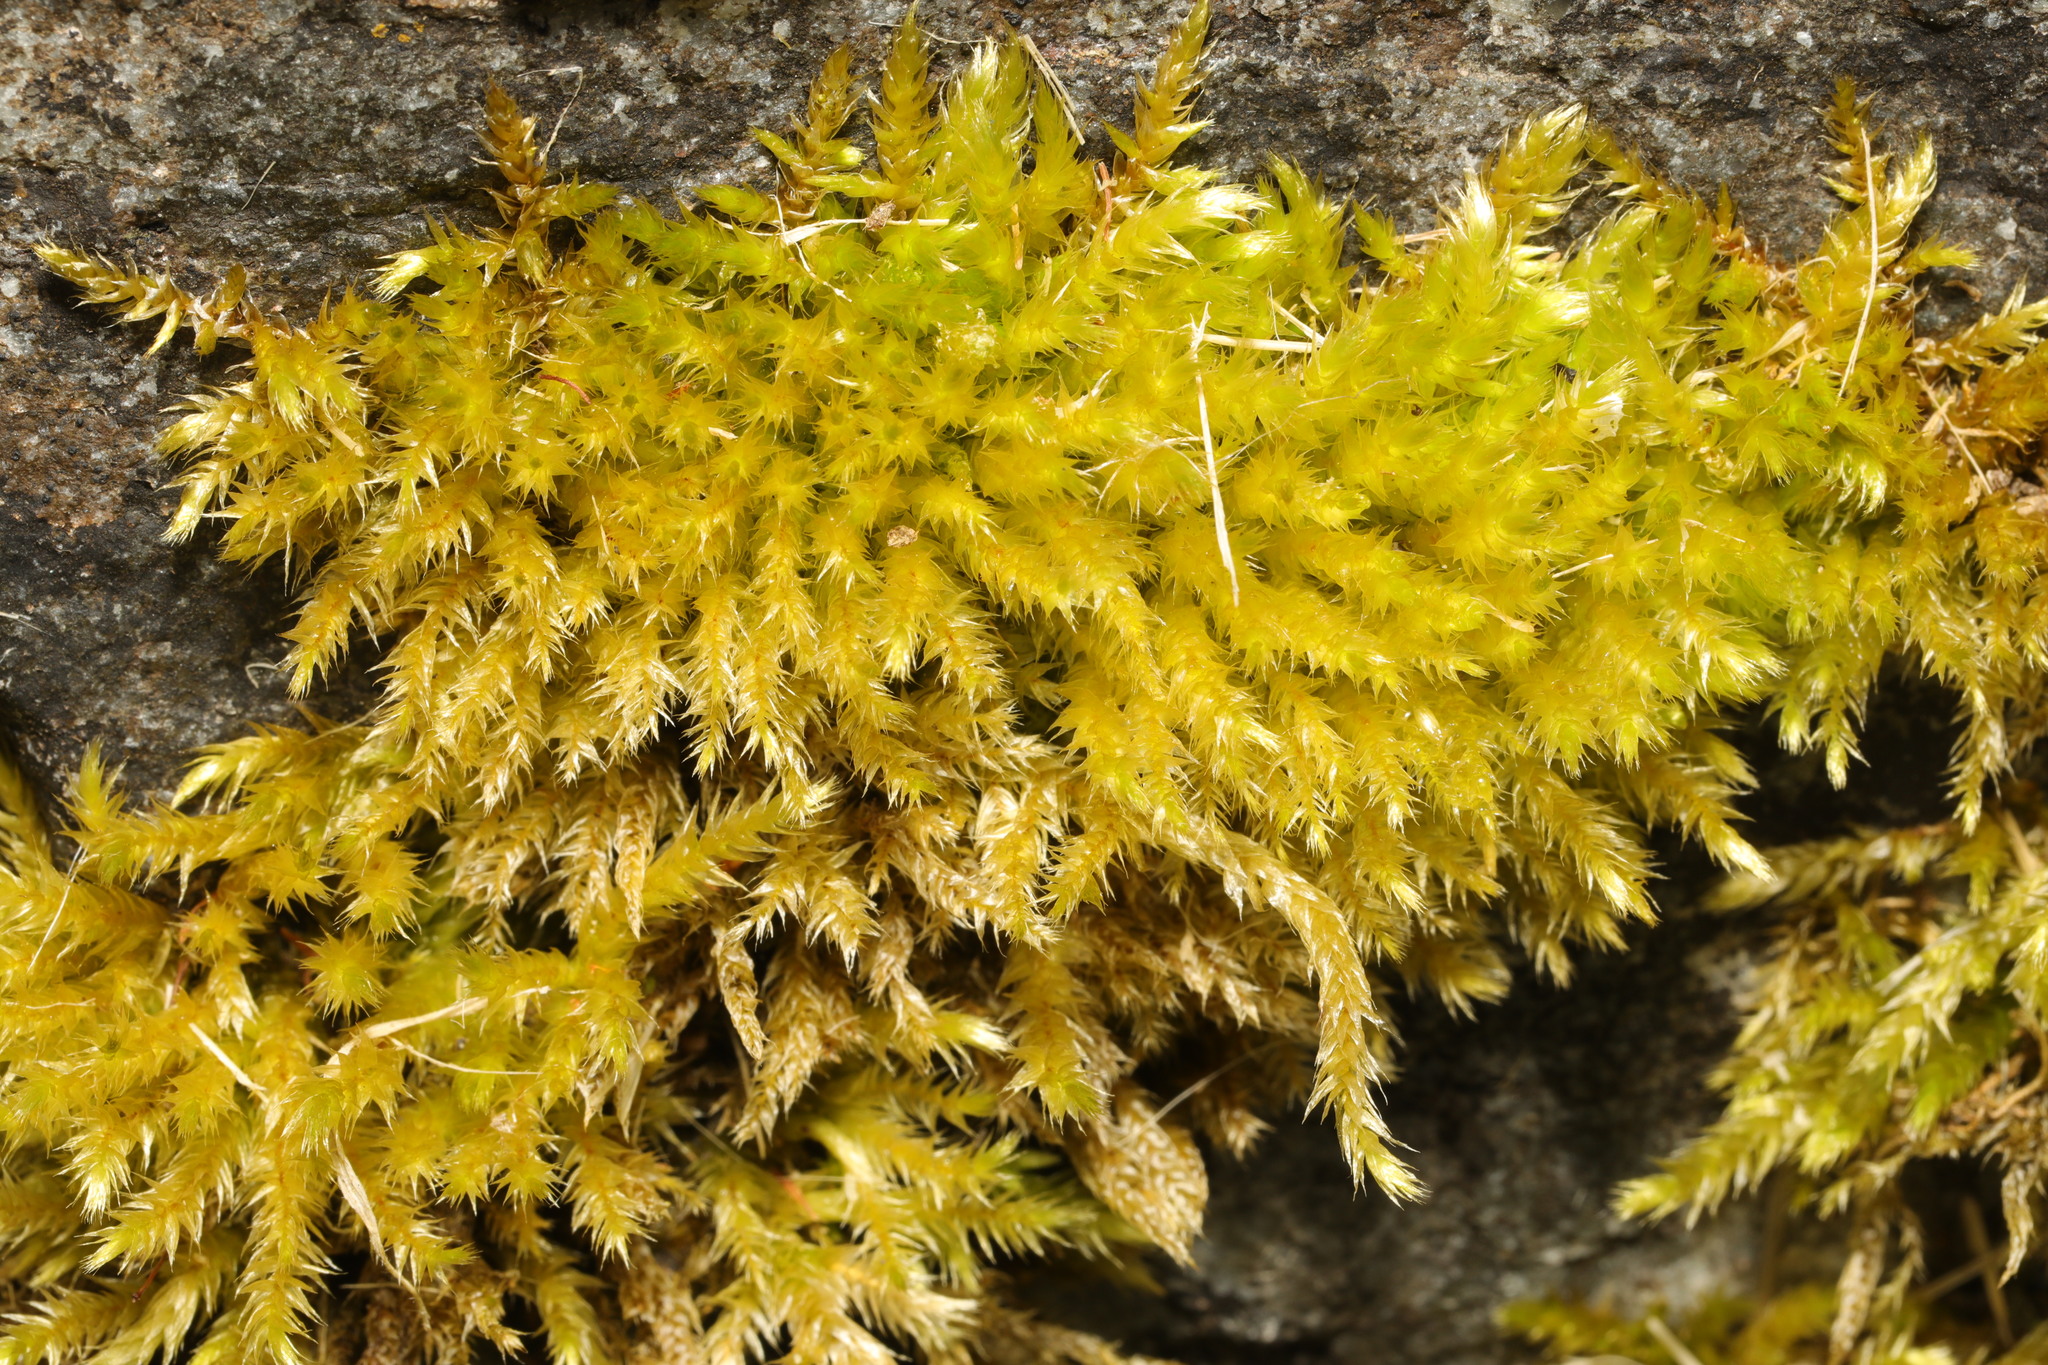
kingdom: Plantae
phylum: Bryophyta
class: Bryopsida
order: Hypnales
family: Brachytheciaceae
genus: Brachythecium
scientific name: Brachythecium rutabulum
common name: Rough-stalked feather-moss
